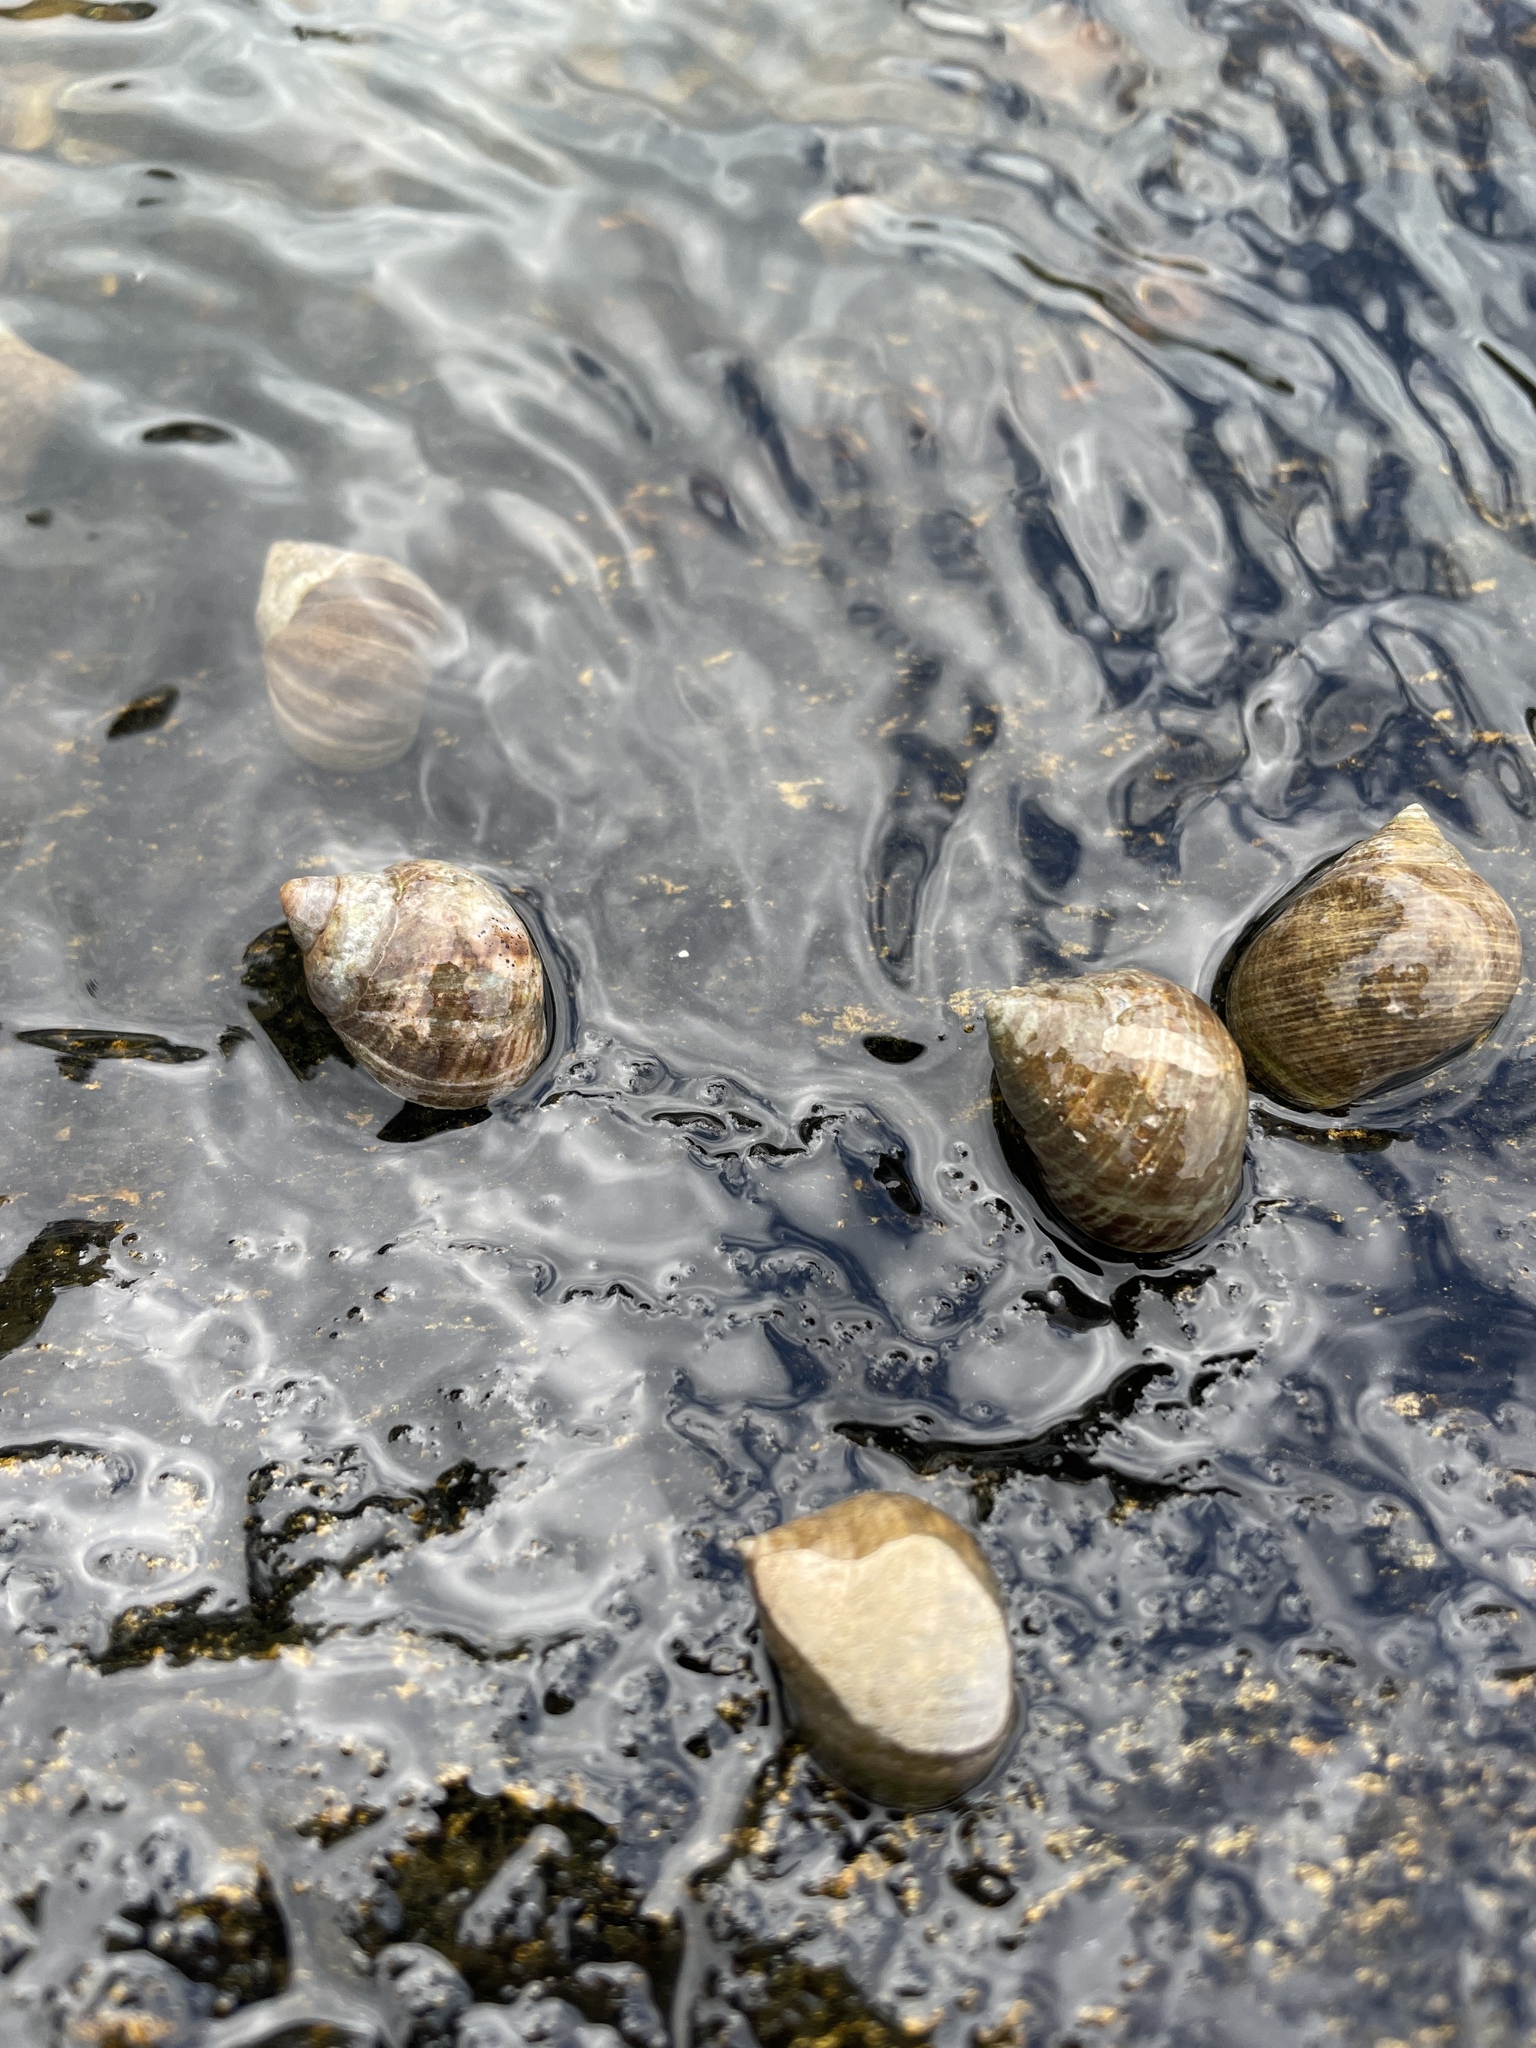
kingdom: Animalia
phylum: Mollusca
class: Gastropoda
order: Littorinimorpha
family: Littorinidae
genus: Littorina
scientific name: Littorina littorea
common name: Common periwinkle
